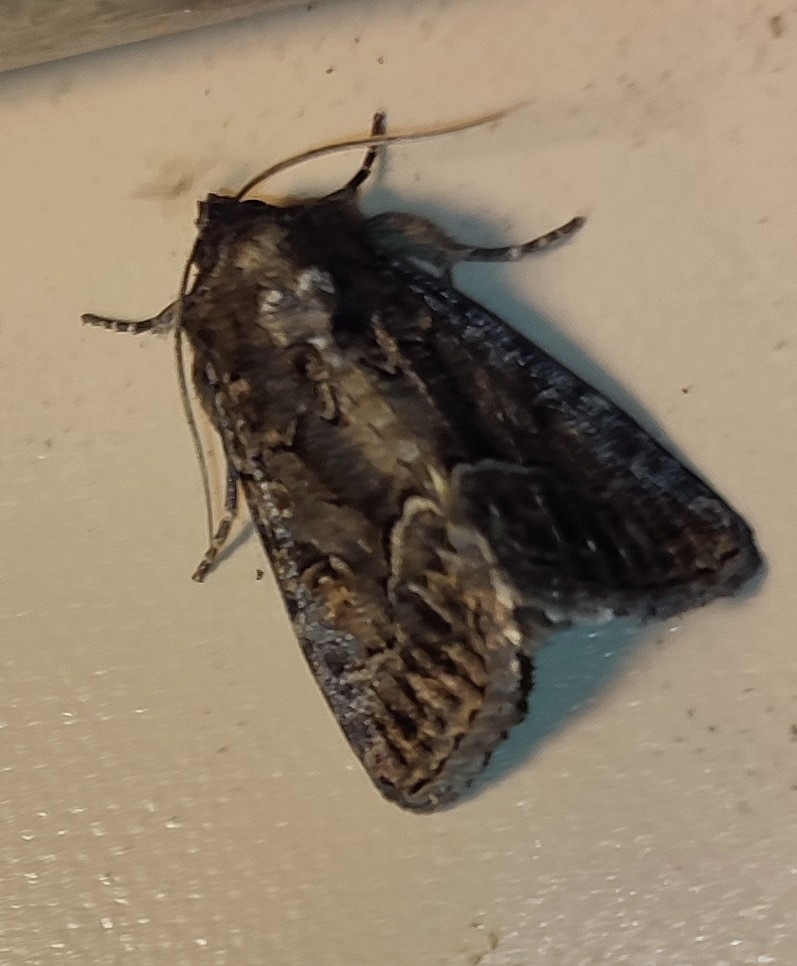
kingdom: Animalia
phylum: Arthropoda
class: Insecta
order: Lepidoptera
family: Noctuidae
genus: Thalpophila
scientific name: Thalpophila matura
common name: Straw underwing
